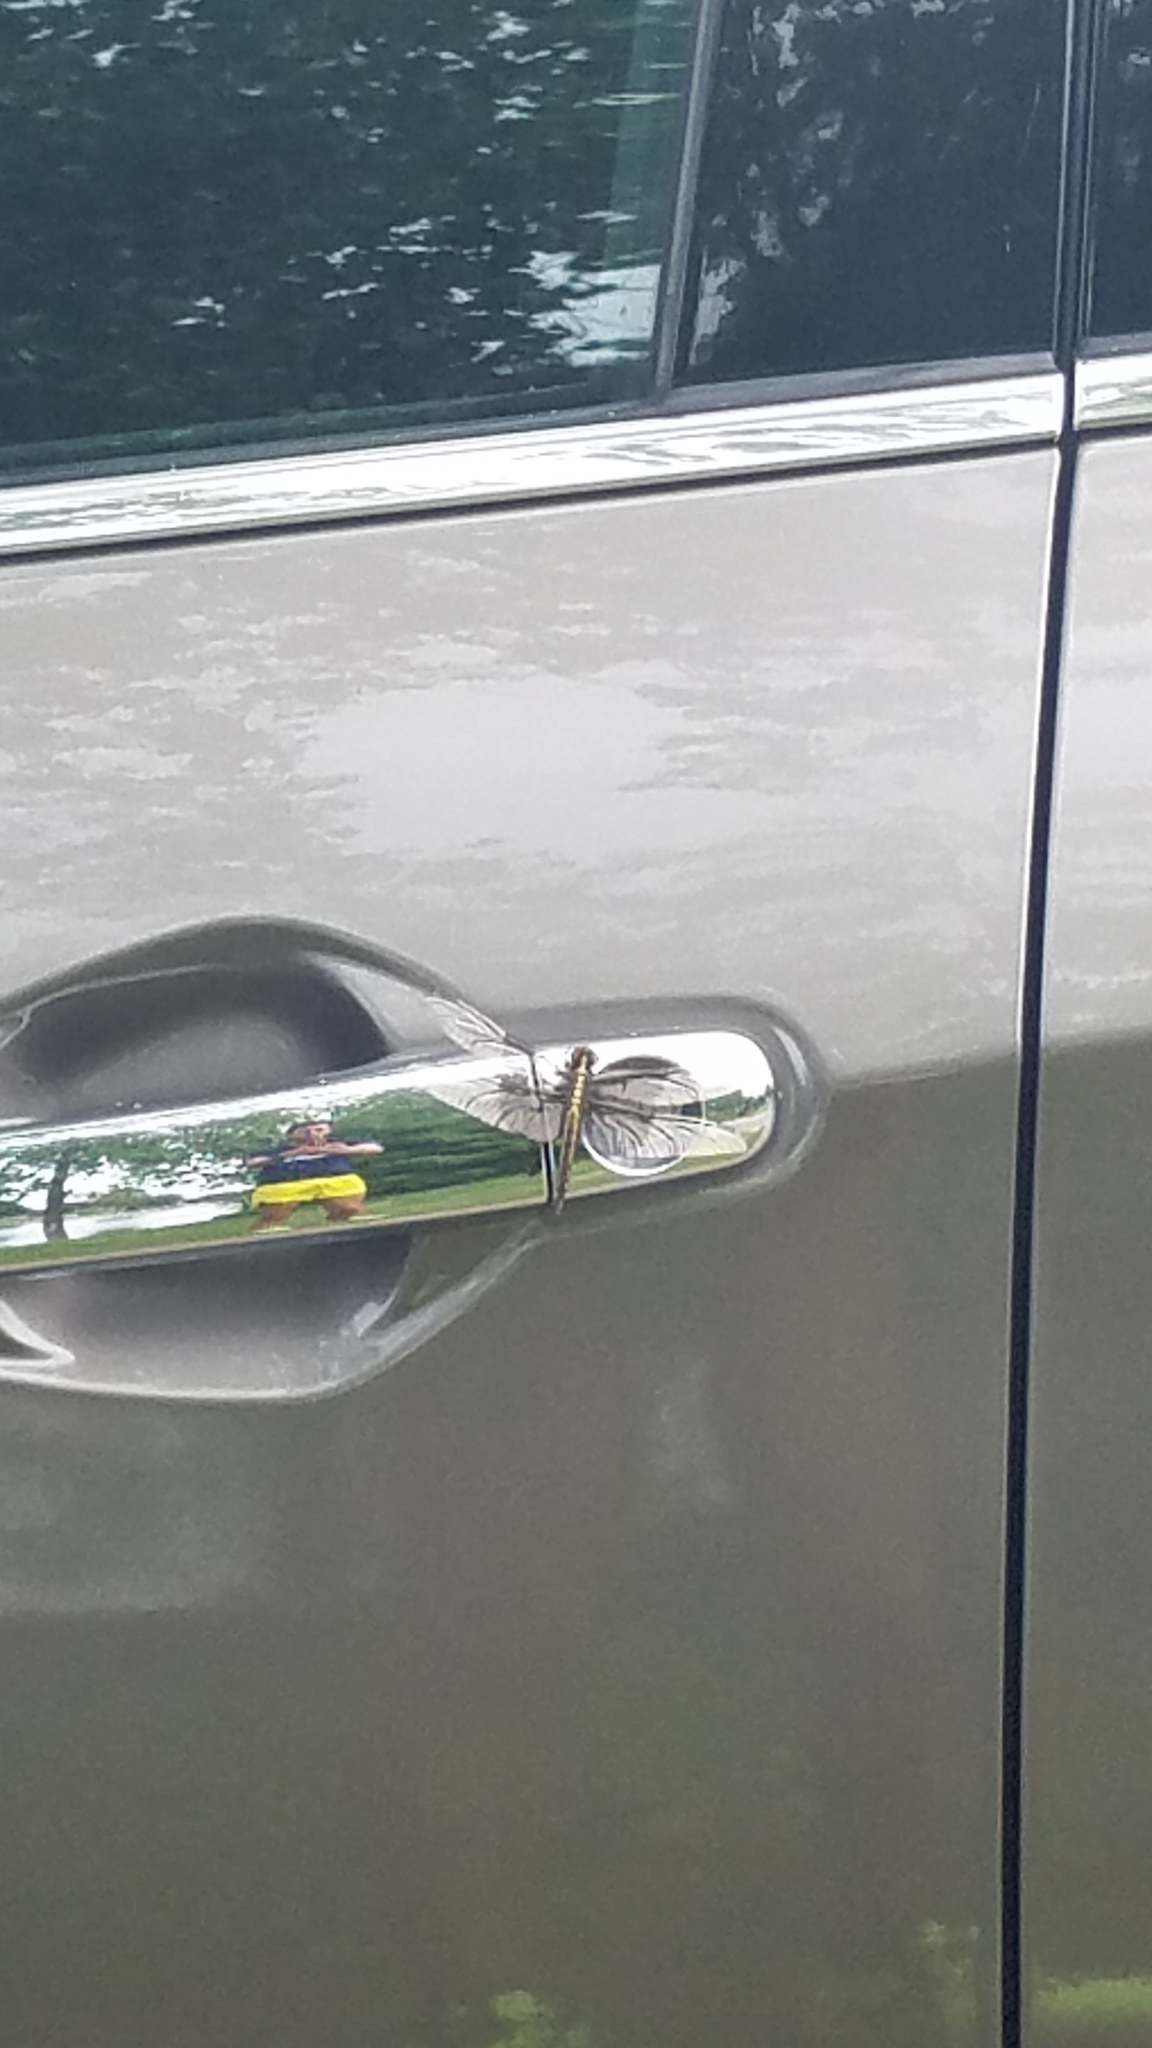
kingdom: Animalia
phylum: Arthropoda
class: Insecta
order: Odonata
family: Libellulidae
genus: Libellula
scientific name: Libellula luctuosa
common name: Widow skimmer
